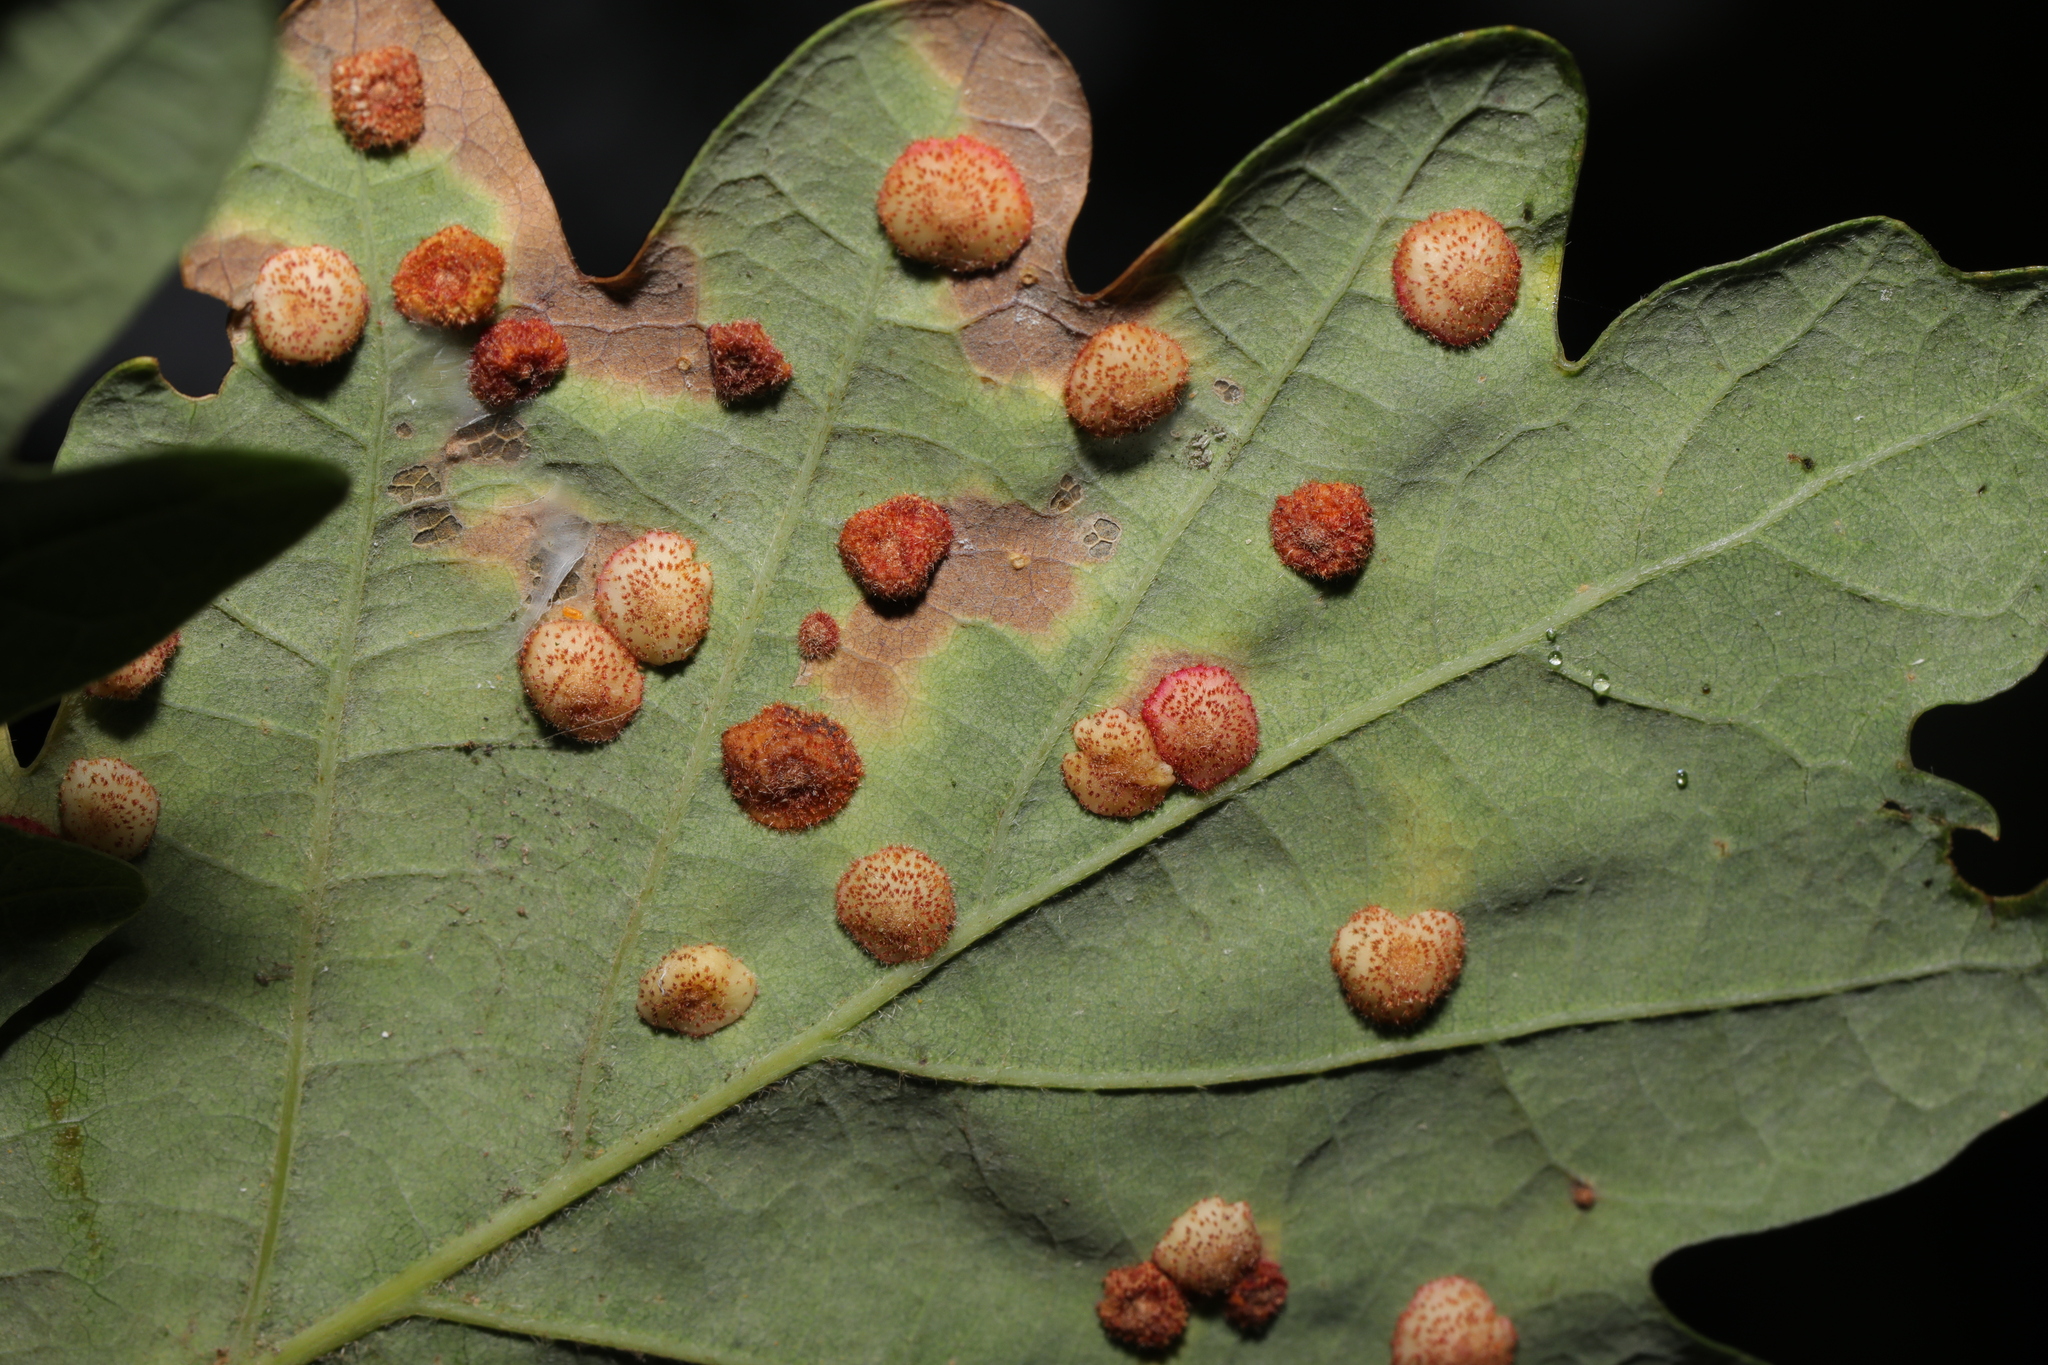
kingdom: Animalia
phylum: Arthropoda
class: Insecta
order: Hymenoptera
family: Cynipidae
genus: Neuroterus
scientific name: Neuroterus quercusbaccarum
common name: Common spangle gall
